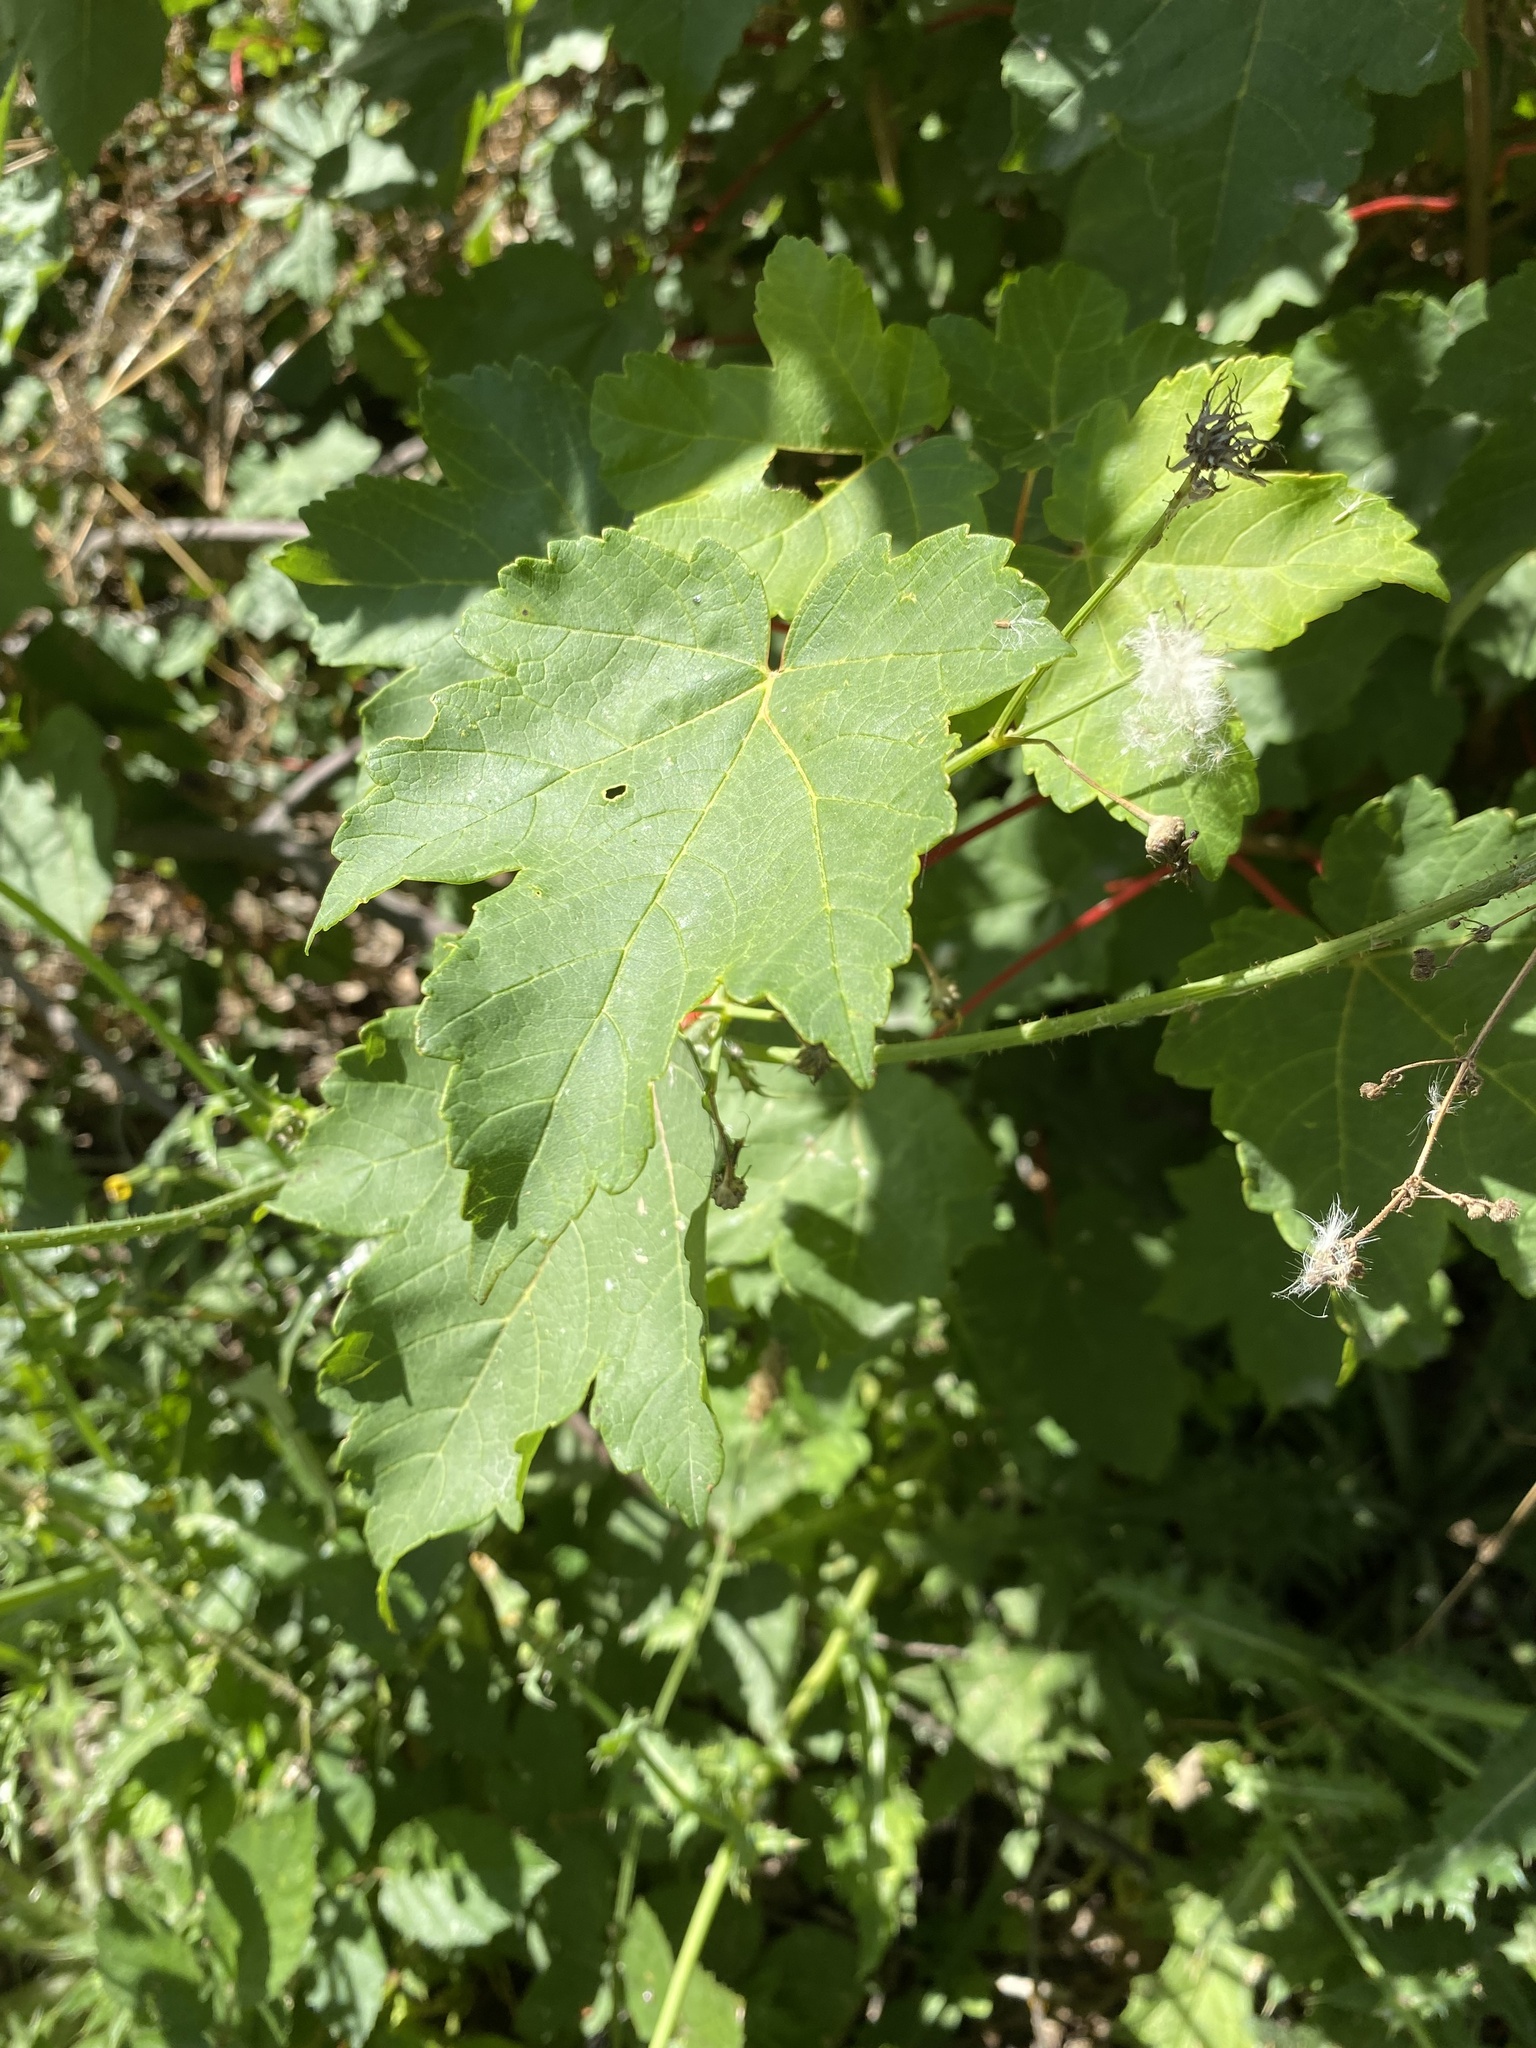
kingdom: Plantae
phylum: Tracheophyta
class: Magnoliopsida
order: Sapindales
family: Sapindaceae
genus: Acer
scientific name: Acer pseudoplatanus
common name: Sycamore
